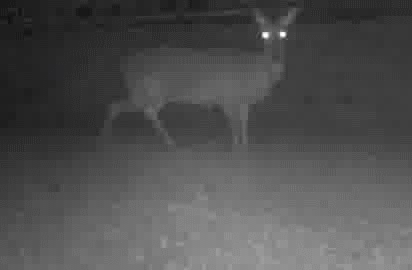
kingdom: Animalia
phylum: Chordata
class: Mammalia
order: Artiodactyla
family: Cervidae
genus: Odocoileus
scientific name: Odocoileus virginianus
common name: White-tailed deer
